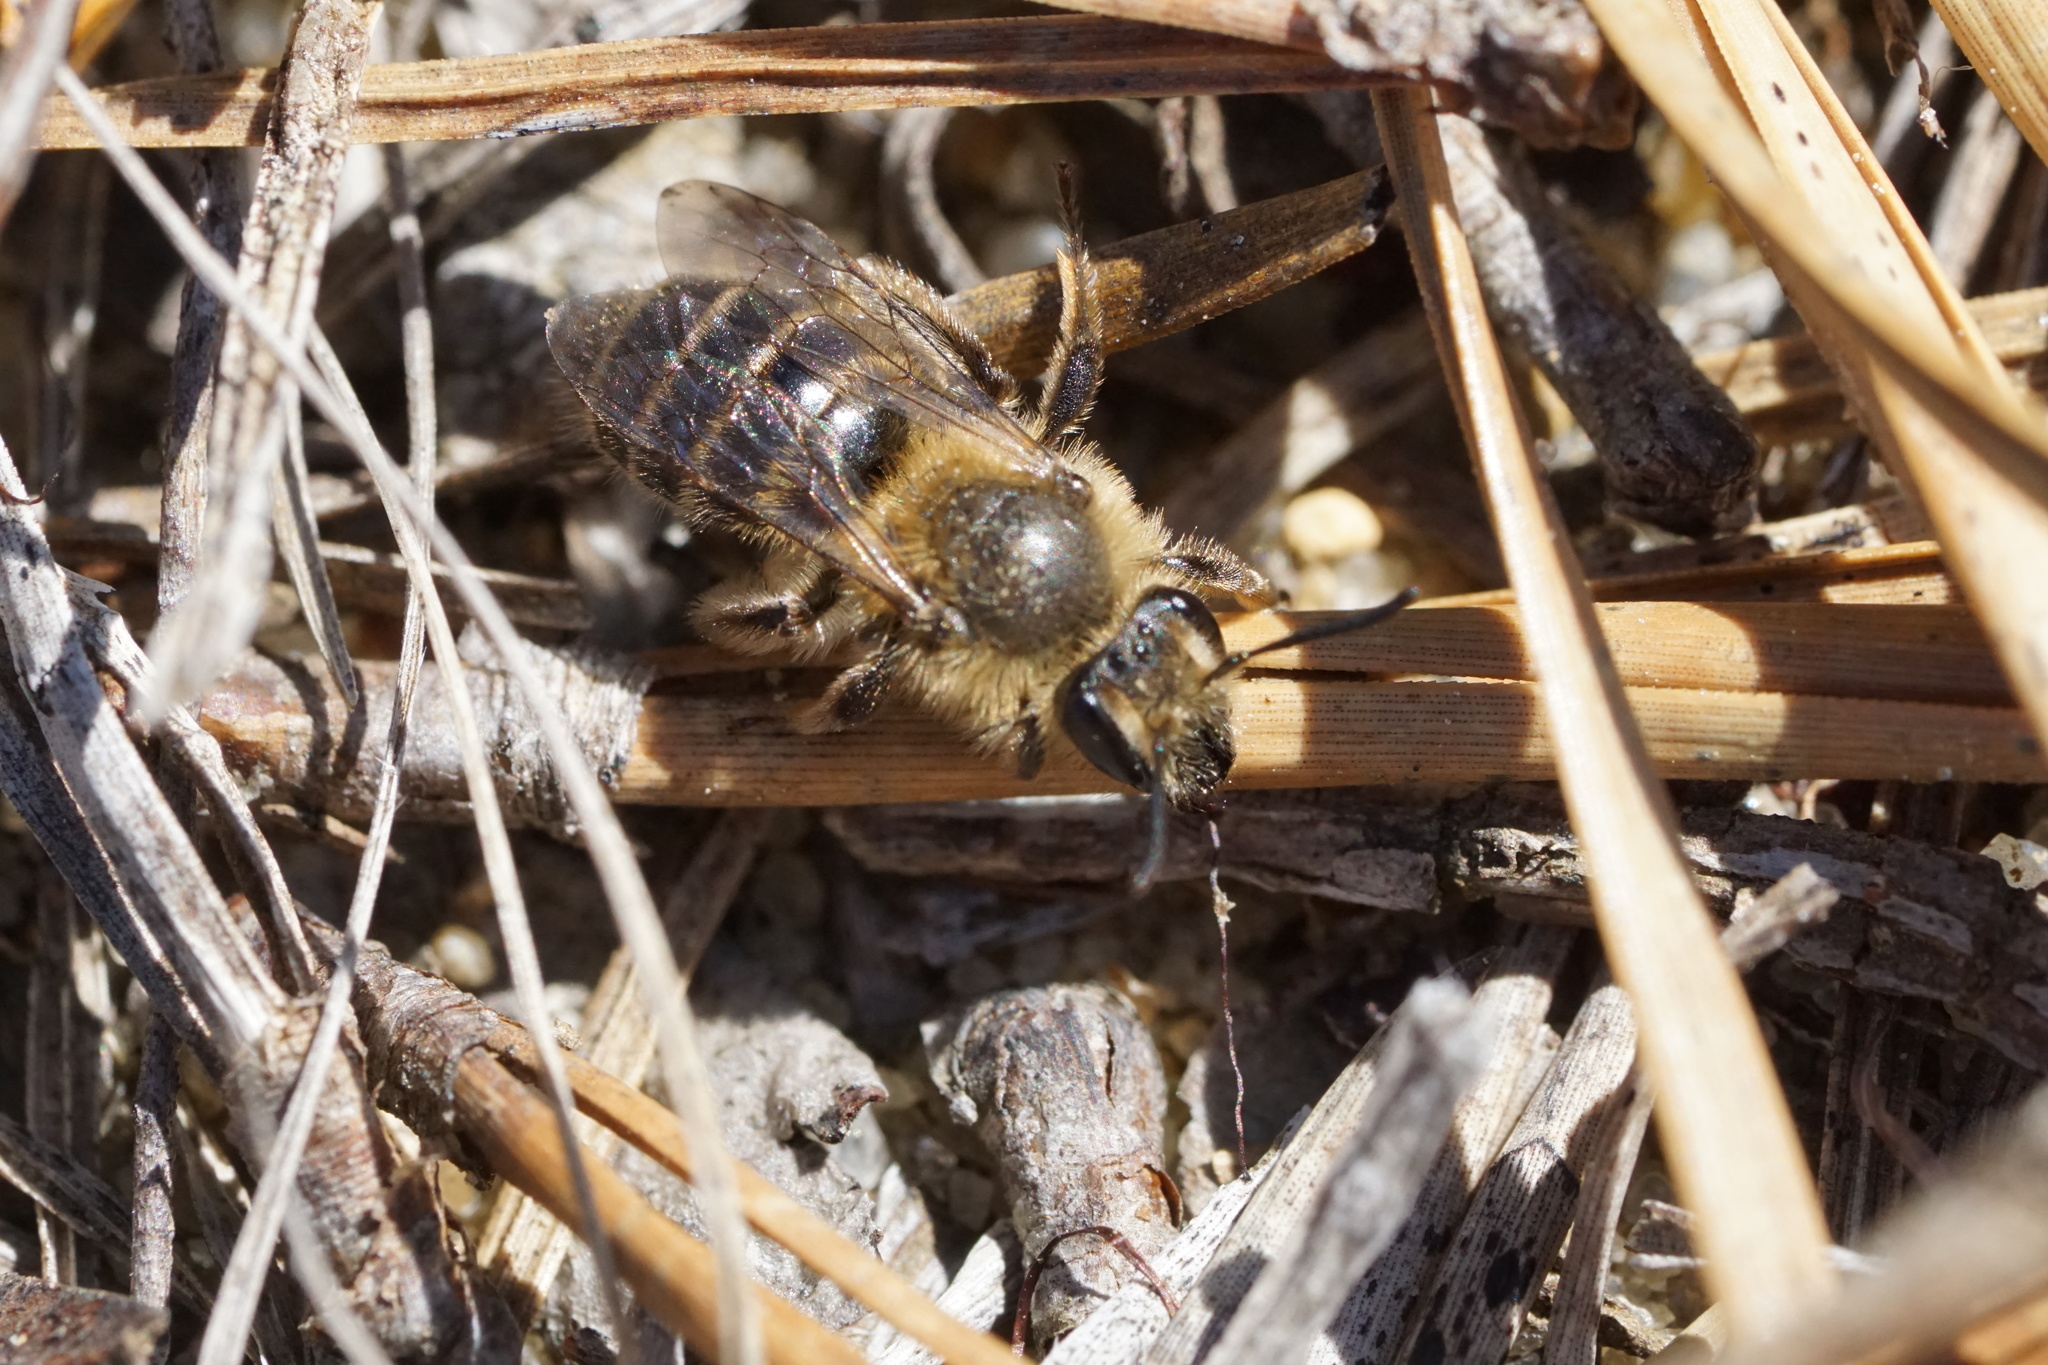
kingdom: Animalia
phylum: Arthropoda
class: Insecta
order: Hymenoptera
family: Andrenidae
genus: Andrena
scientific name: Andrena bradleyi
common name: Bradley's mining bee
